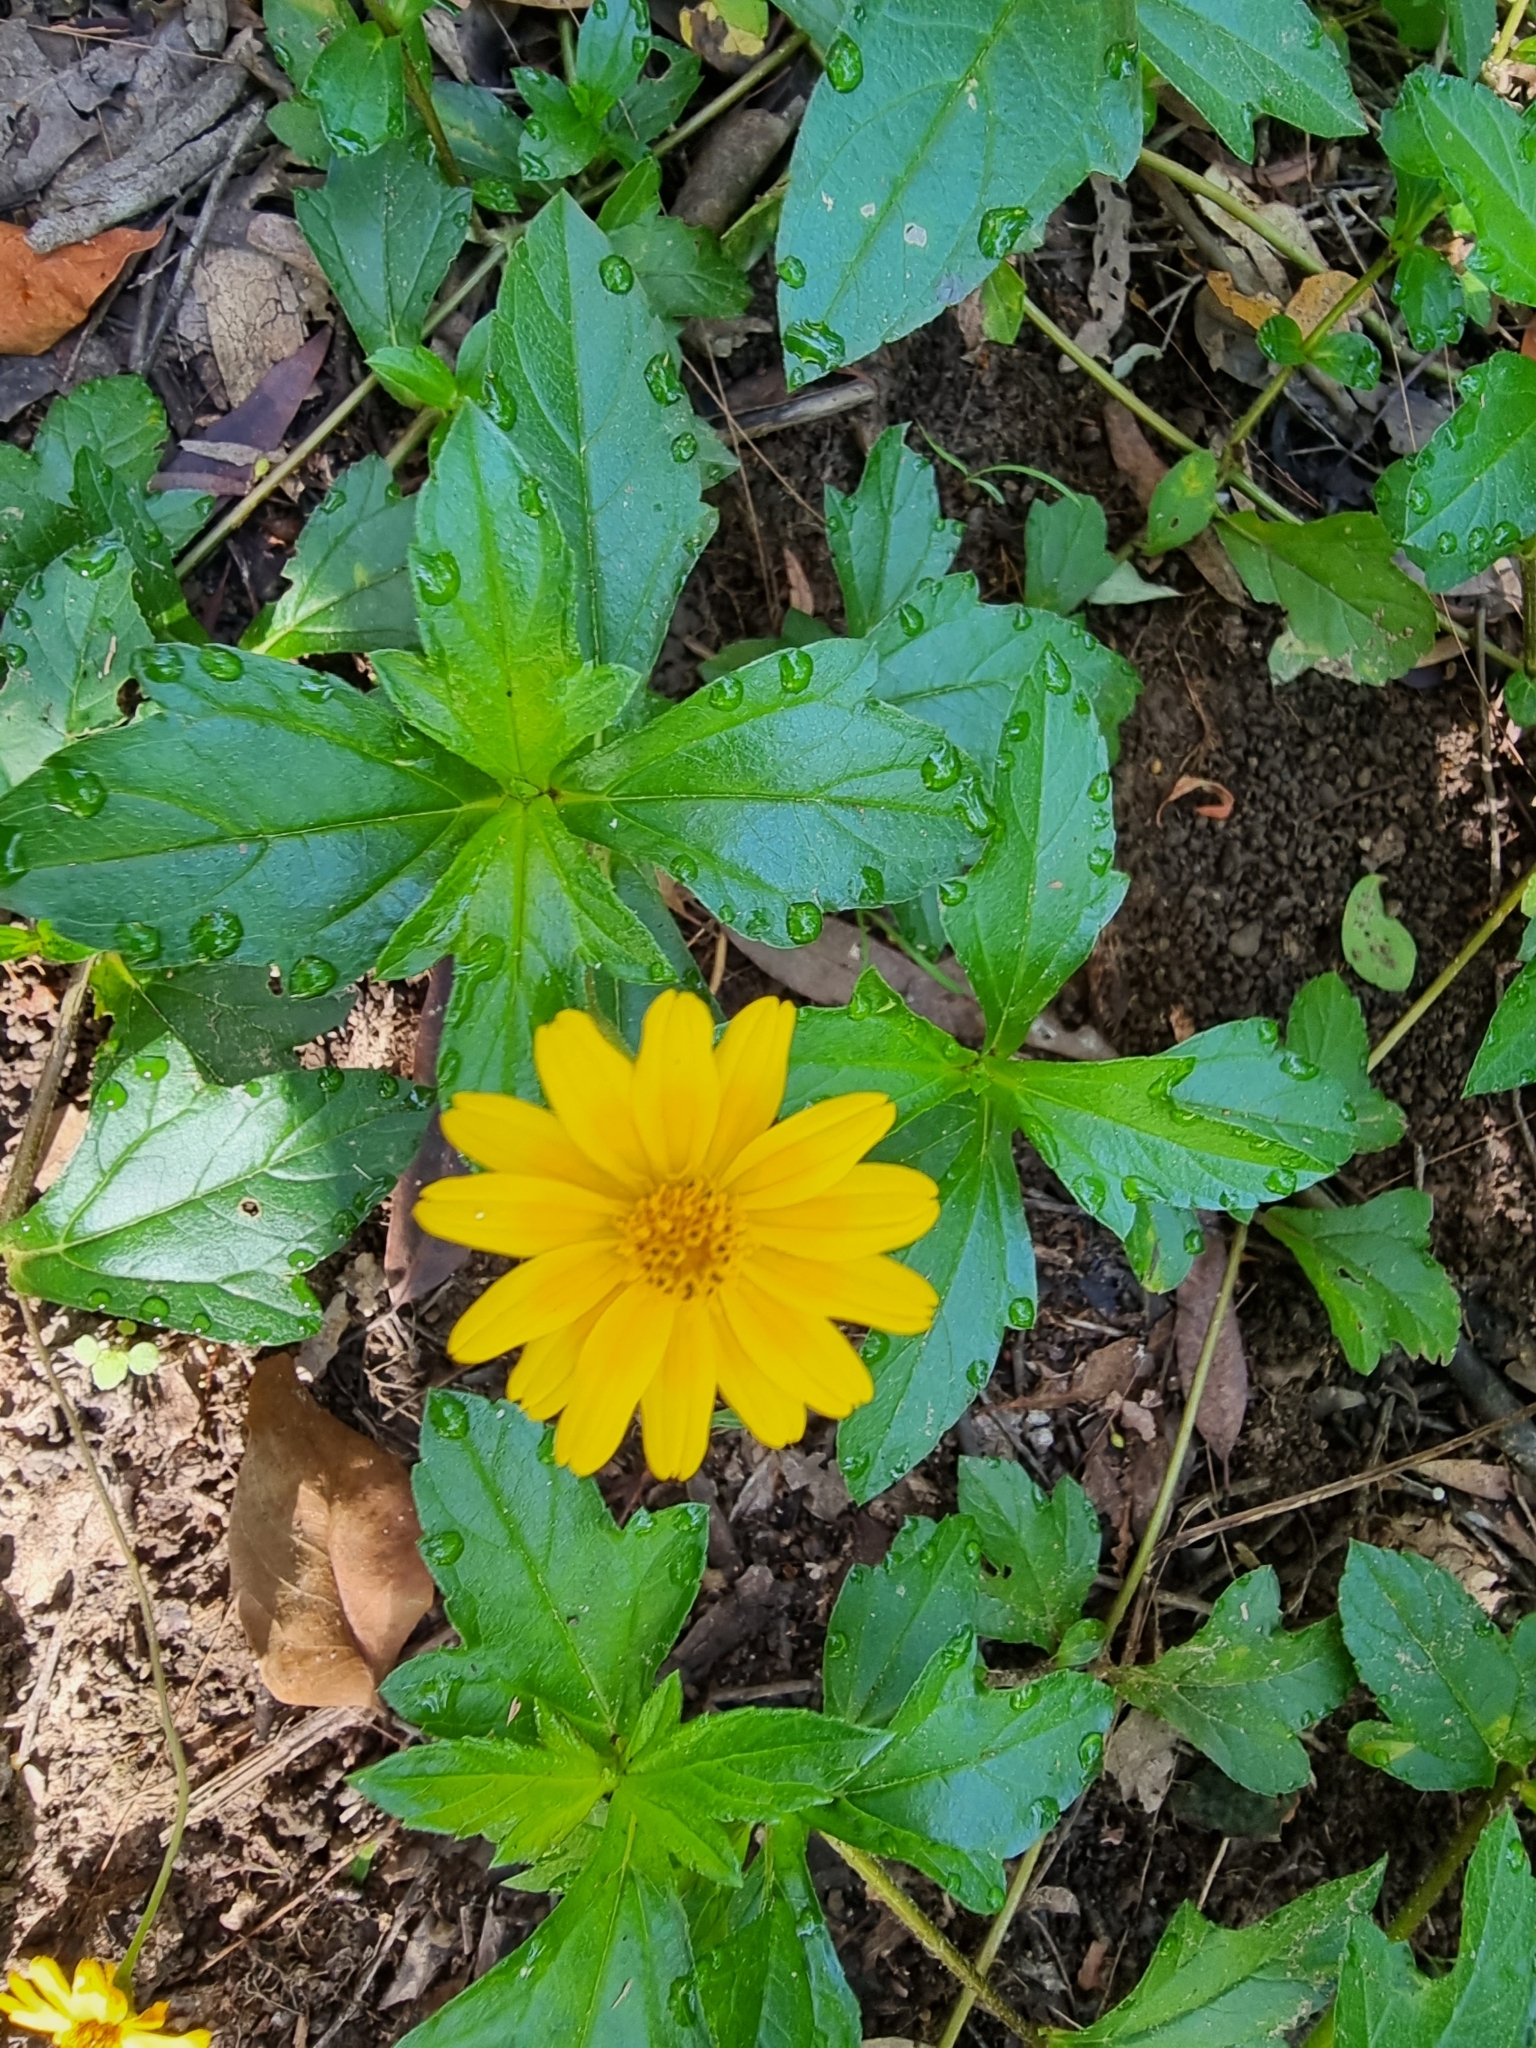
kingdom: Plantae
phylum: Tracheophyta
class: Magnoliopsida
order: Asterales
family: Asteraceae
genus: Sphagneticola
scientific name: Sphagneticola trilobata
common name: Bay biscayne creeping-oxeye
